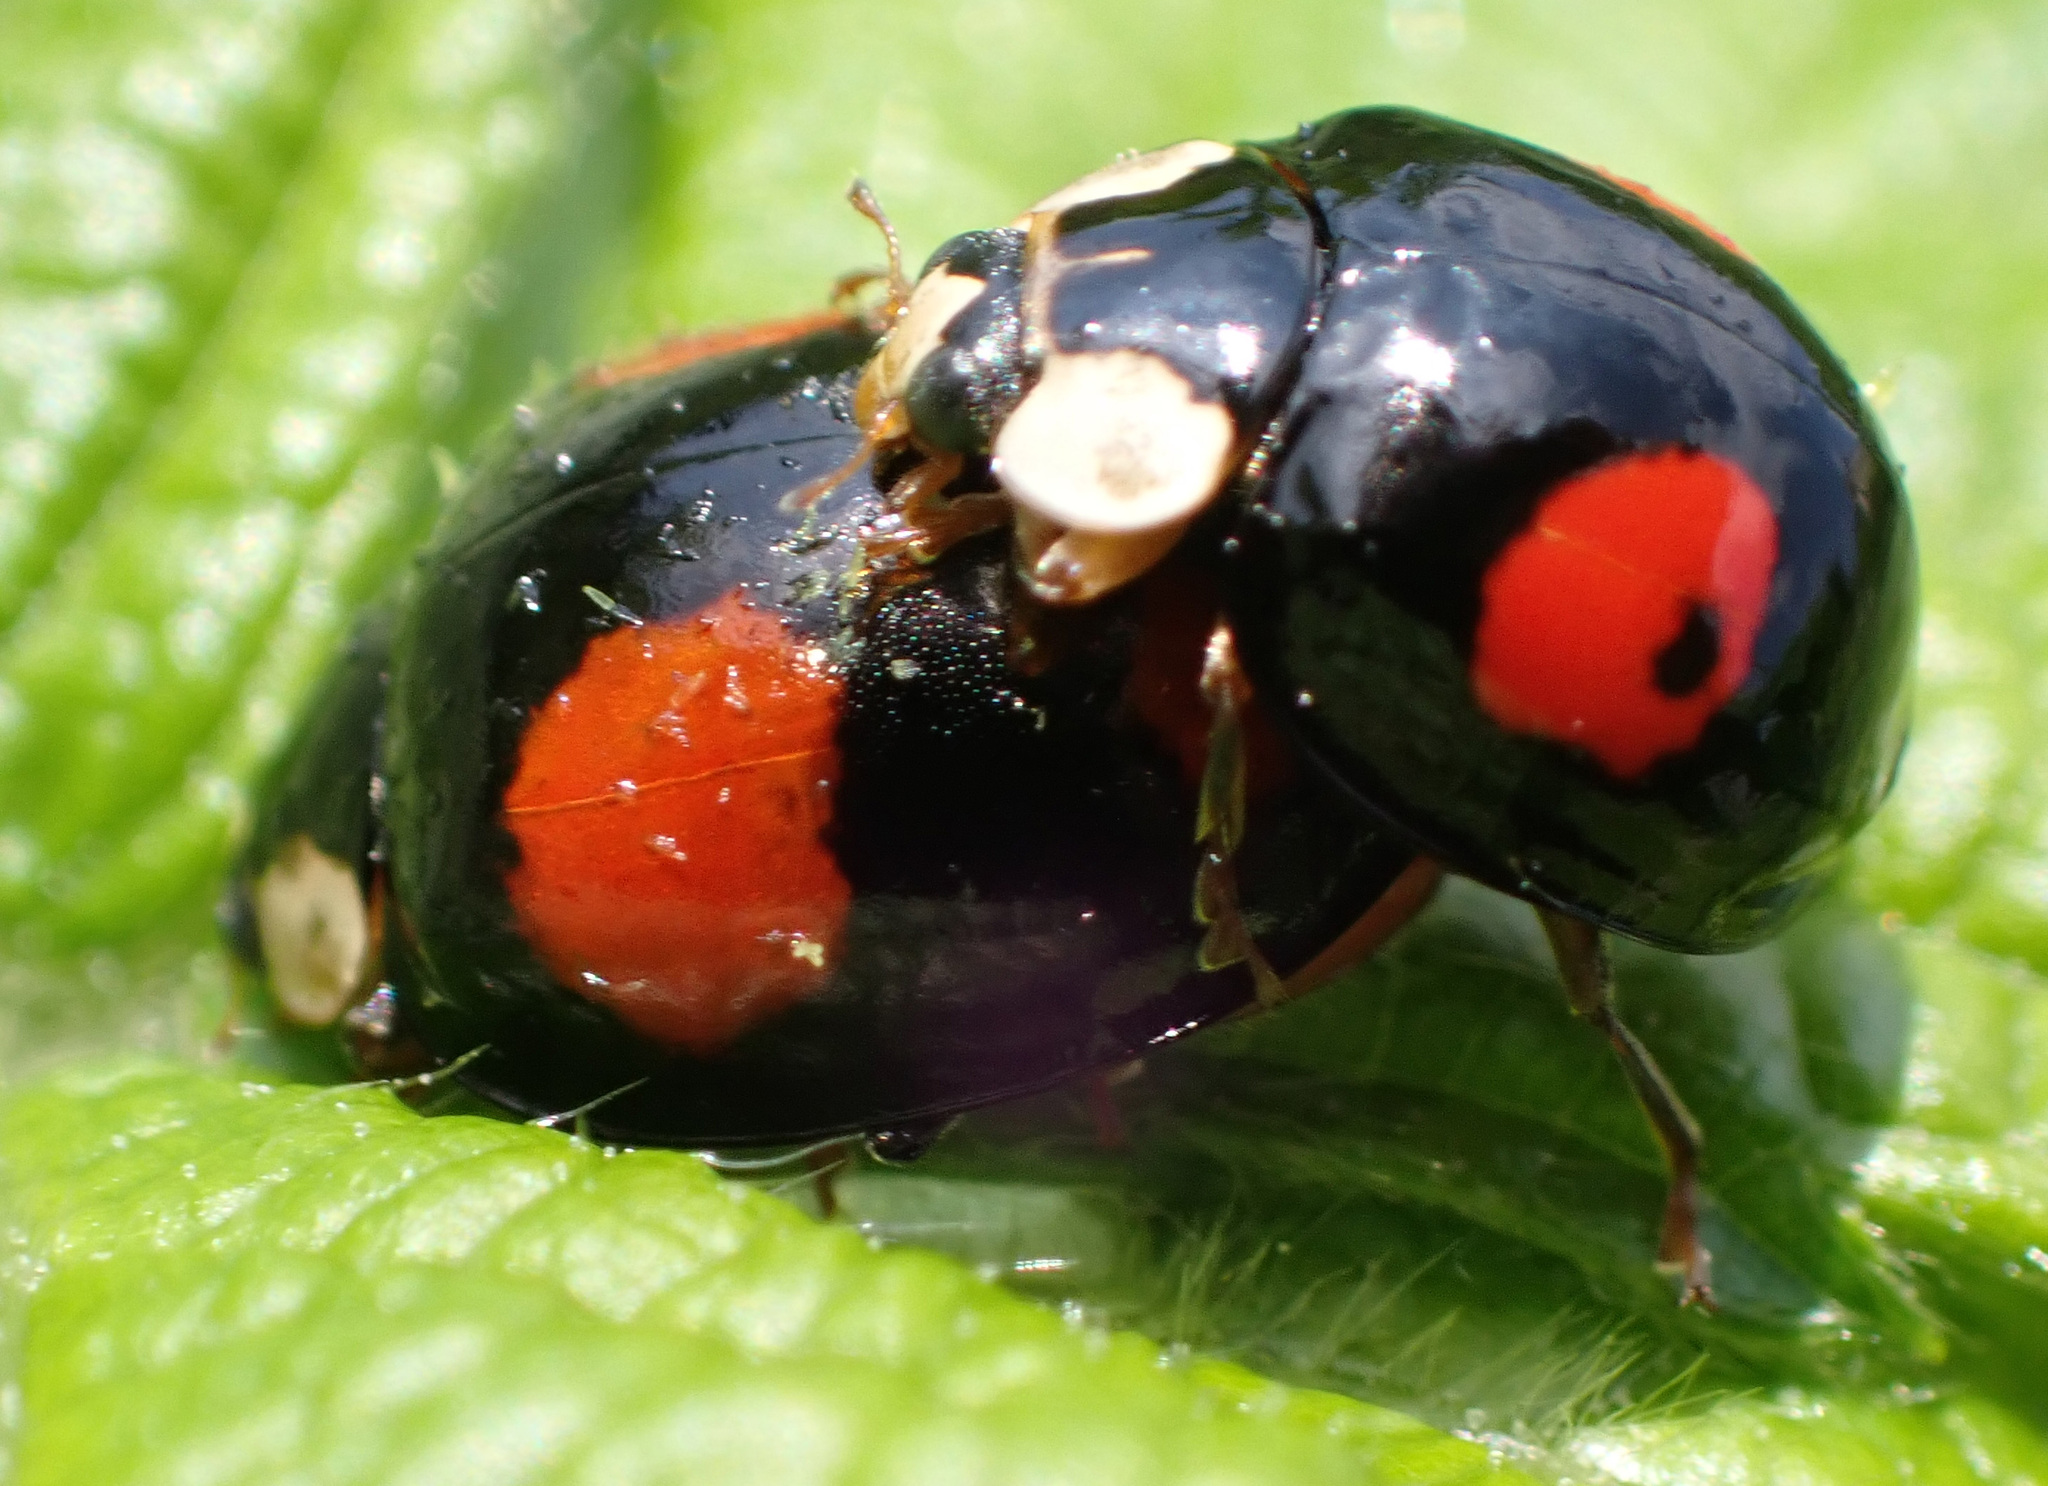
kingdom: Animalia
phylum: Arthropoda
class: Insecta
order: Coleoptera
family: Coccinellidae
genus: Harmonia
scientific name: Harmonia axyridis
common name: Harlequin ladybird
